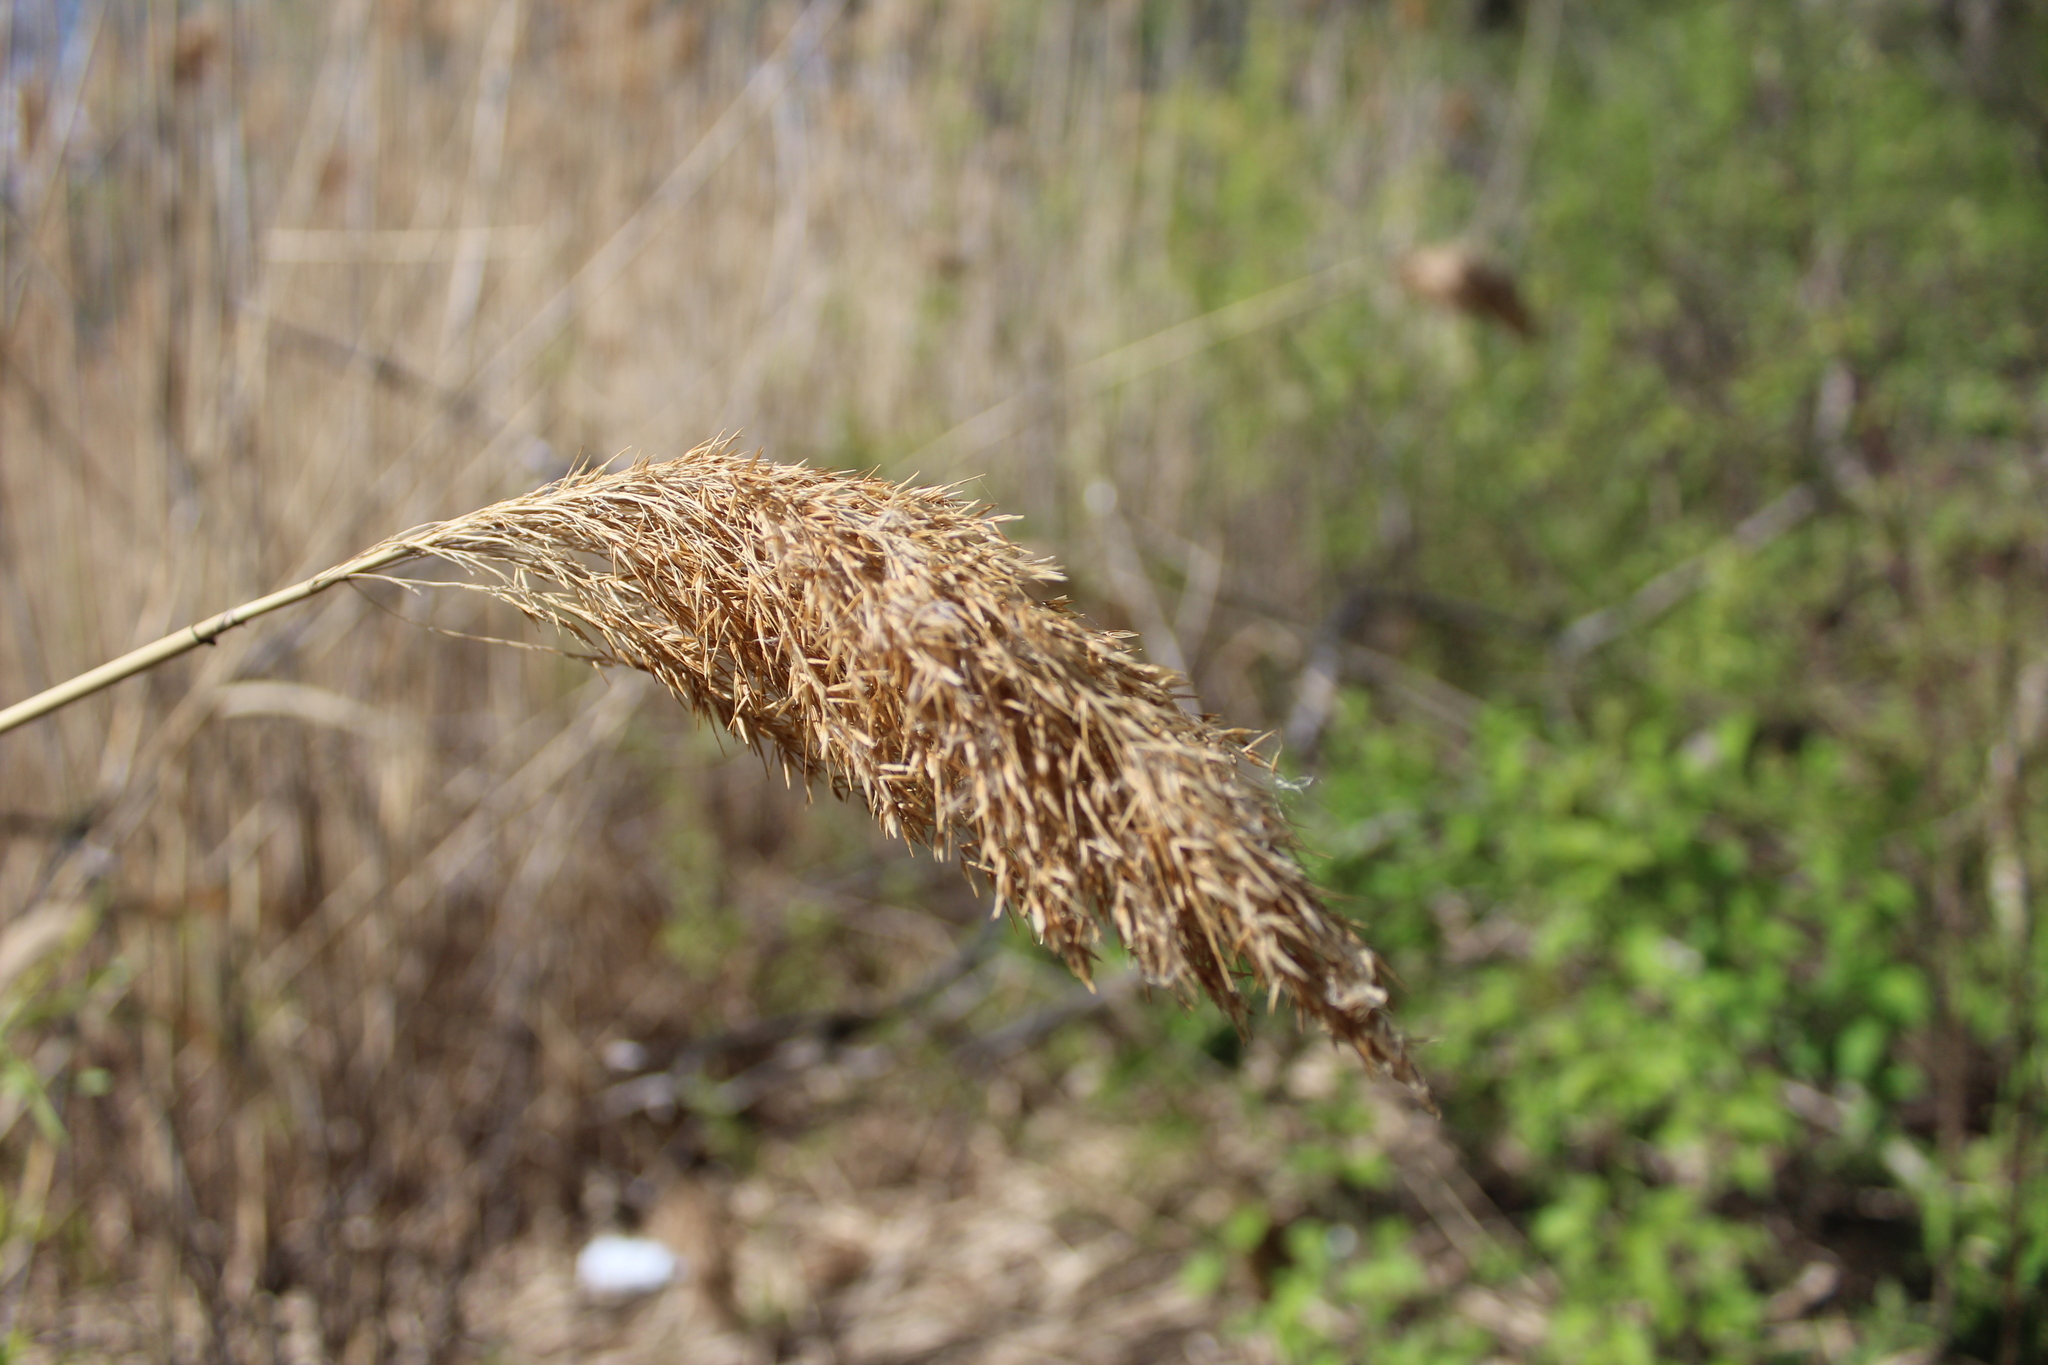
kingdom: Plantae
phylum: Tracheophyta
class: Liliopsida
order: Poales
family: Poaceae
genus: Phragmites
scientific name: Phragmites australis
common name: Common reed
